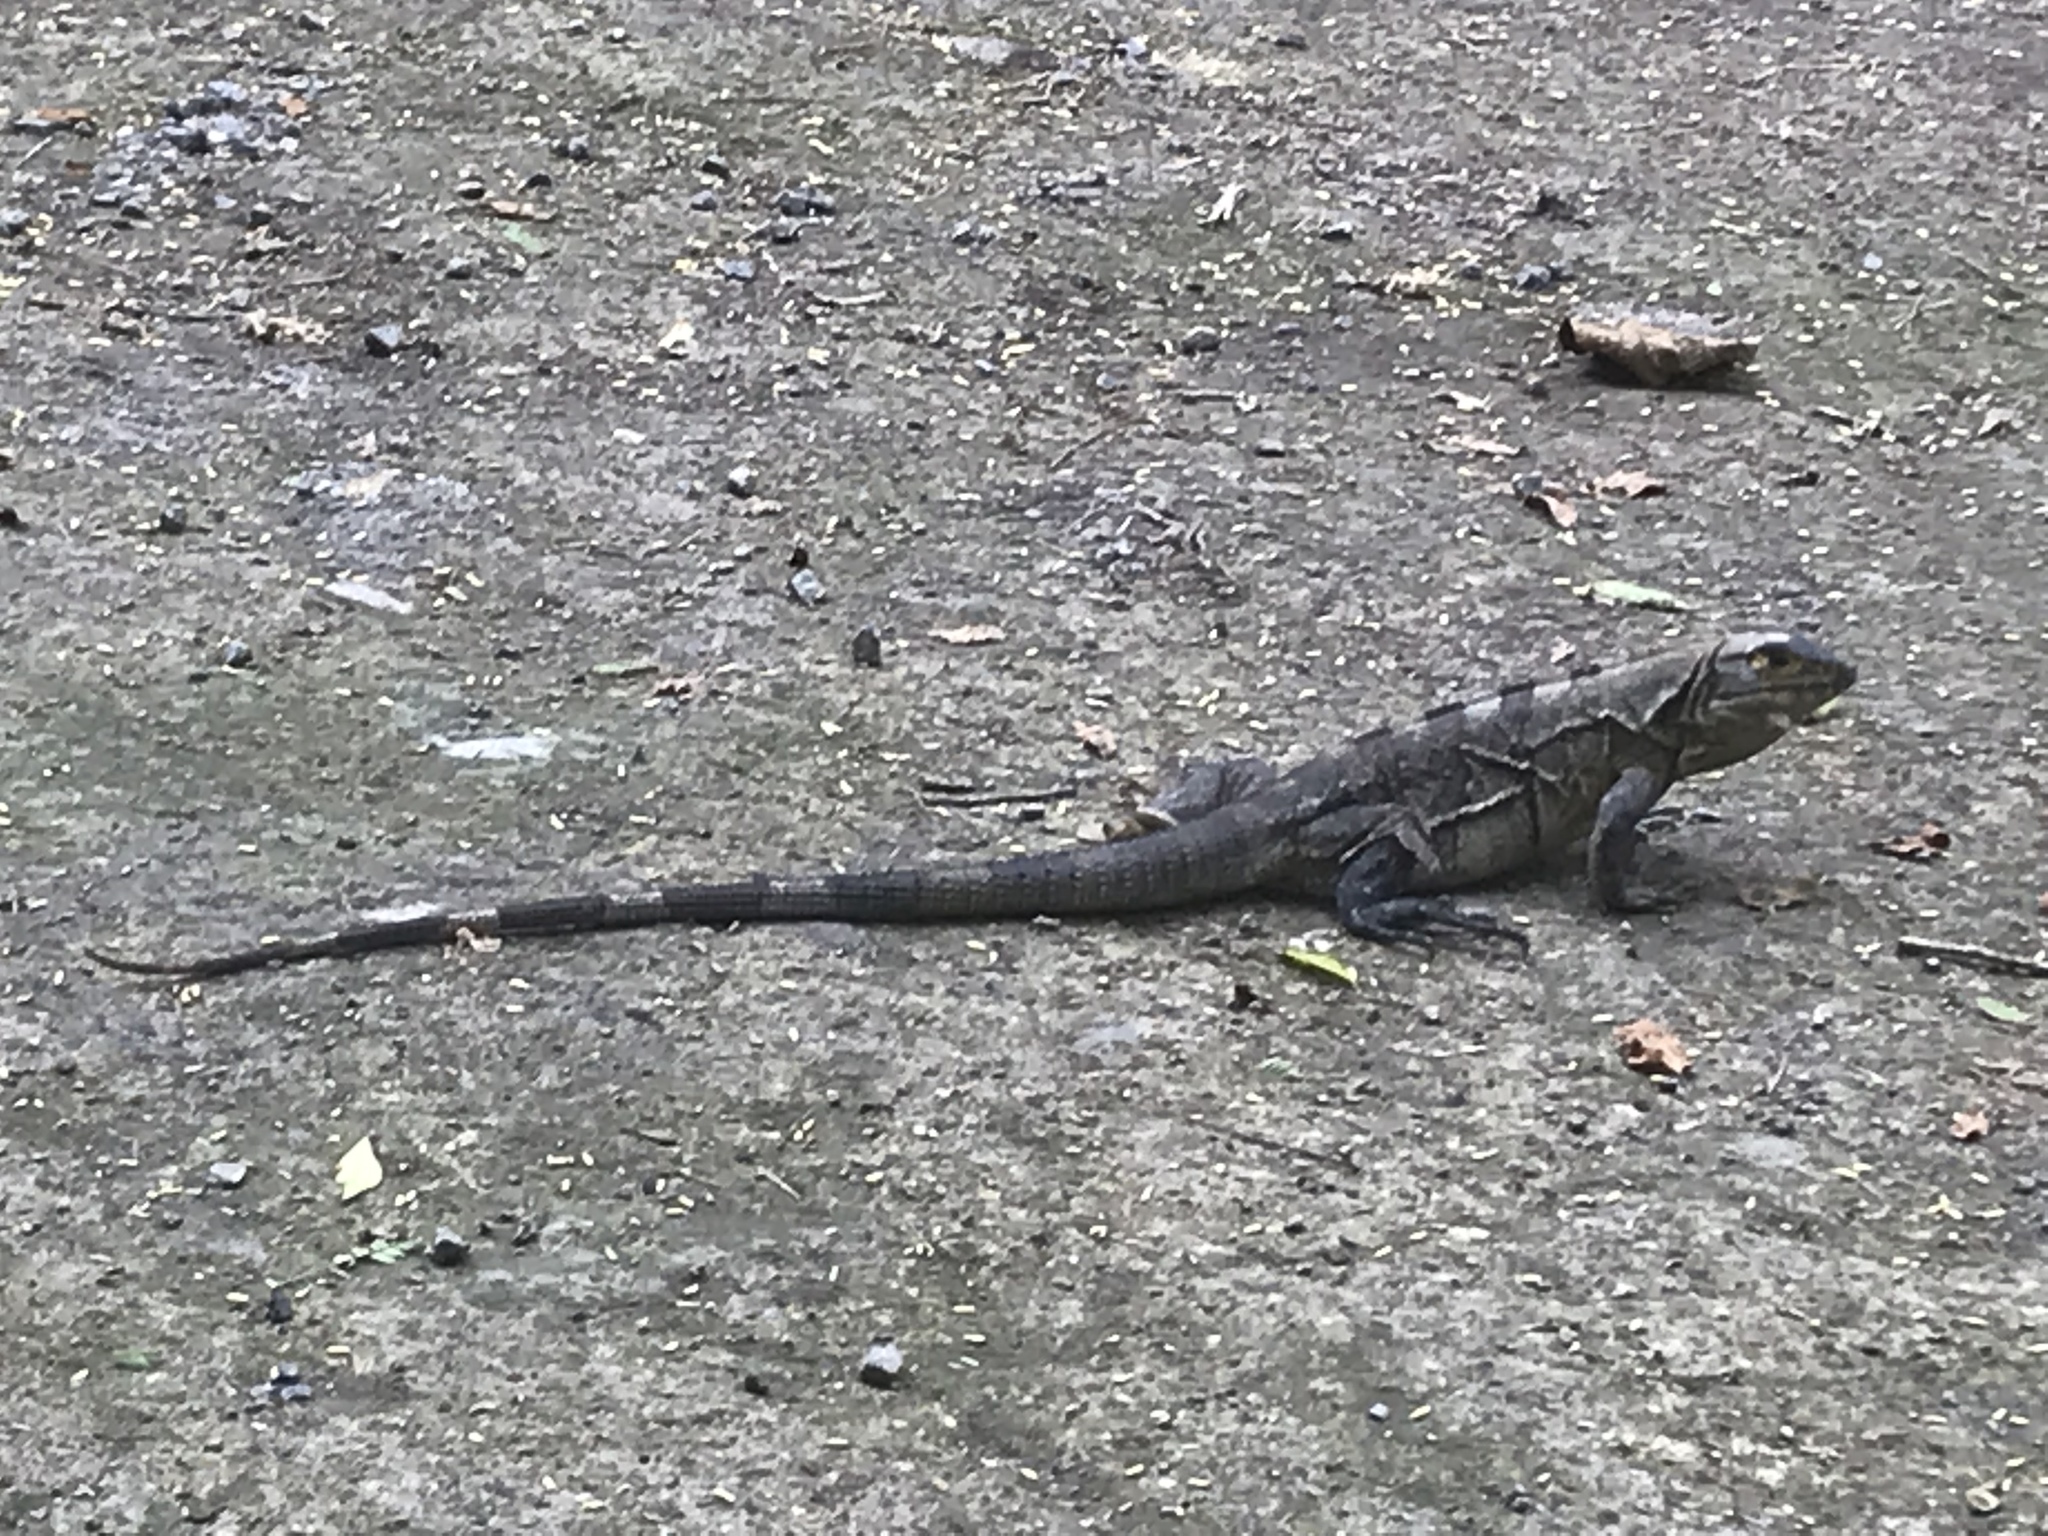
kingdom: Animalia
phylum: Chordata
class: Squamata
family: Iguanidae
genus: Ctenosaura
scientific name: Ctenosaura similis
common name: Black spiny-tailed iguana
